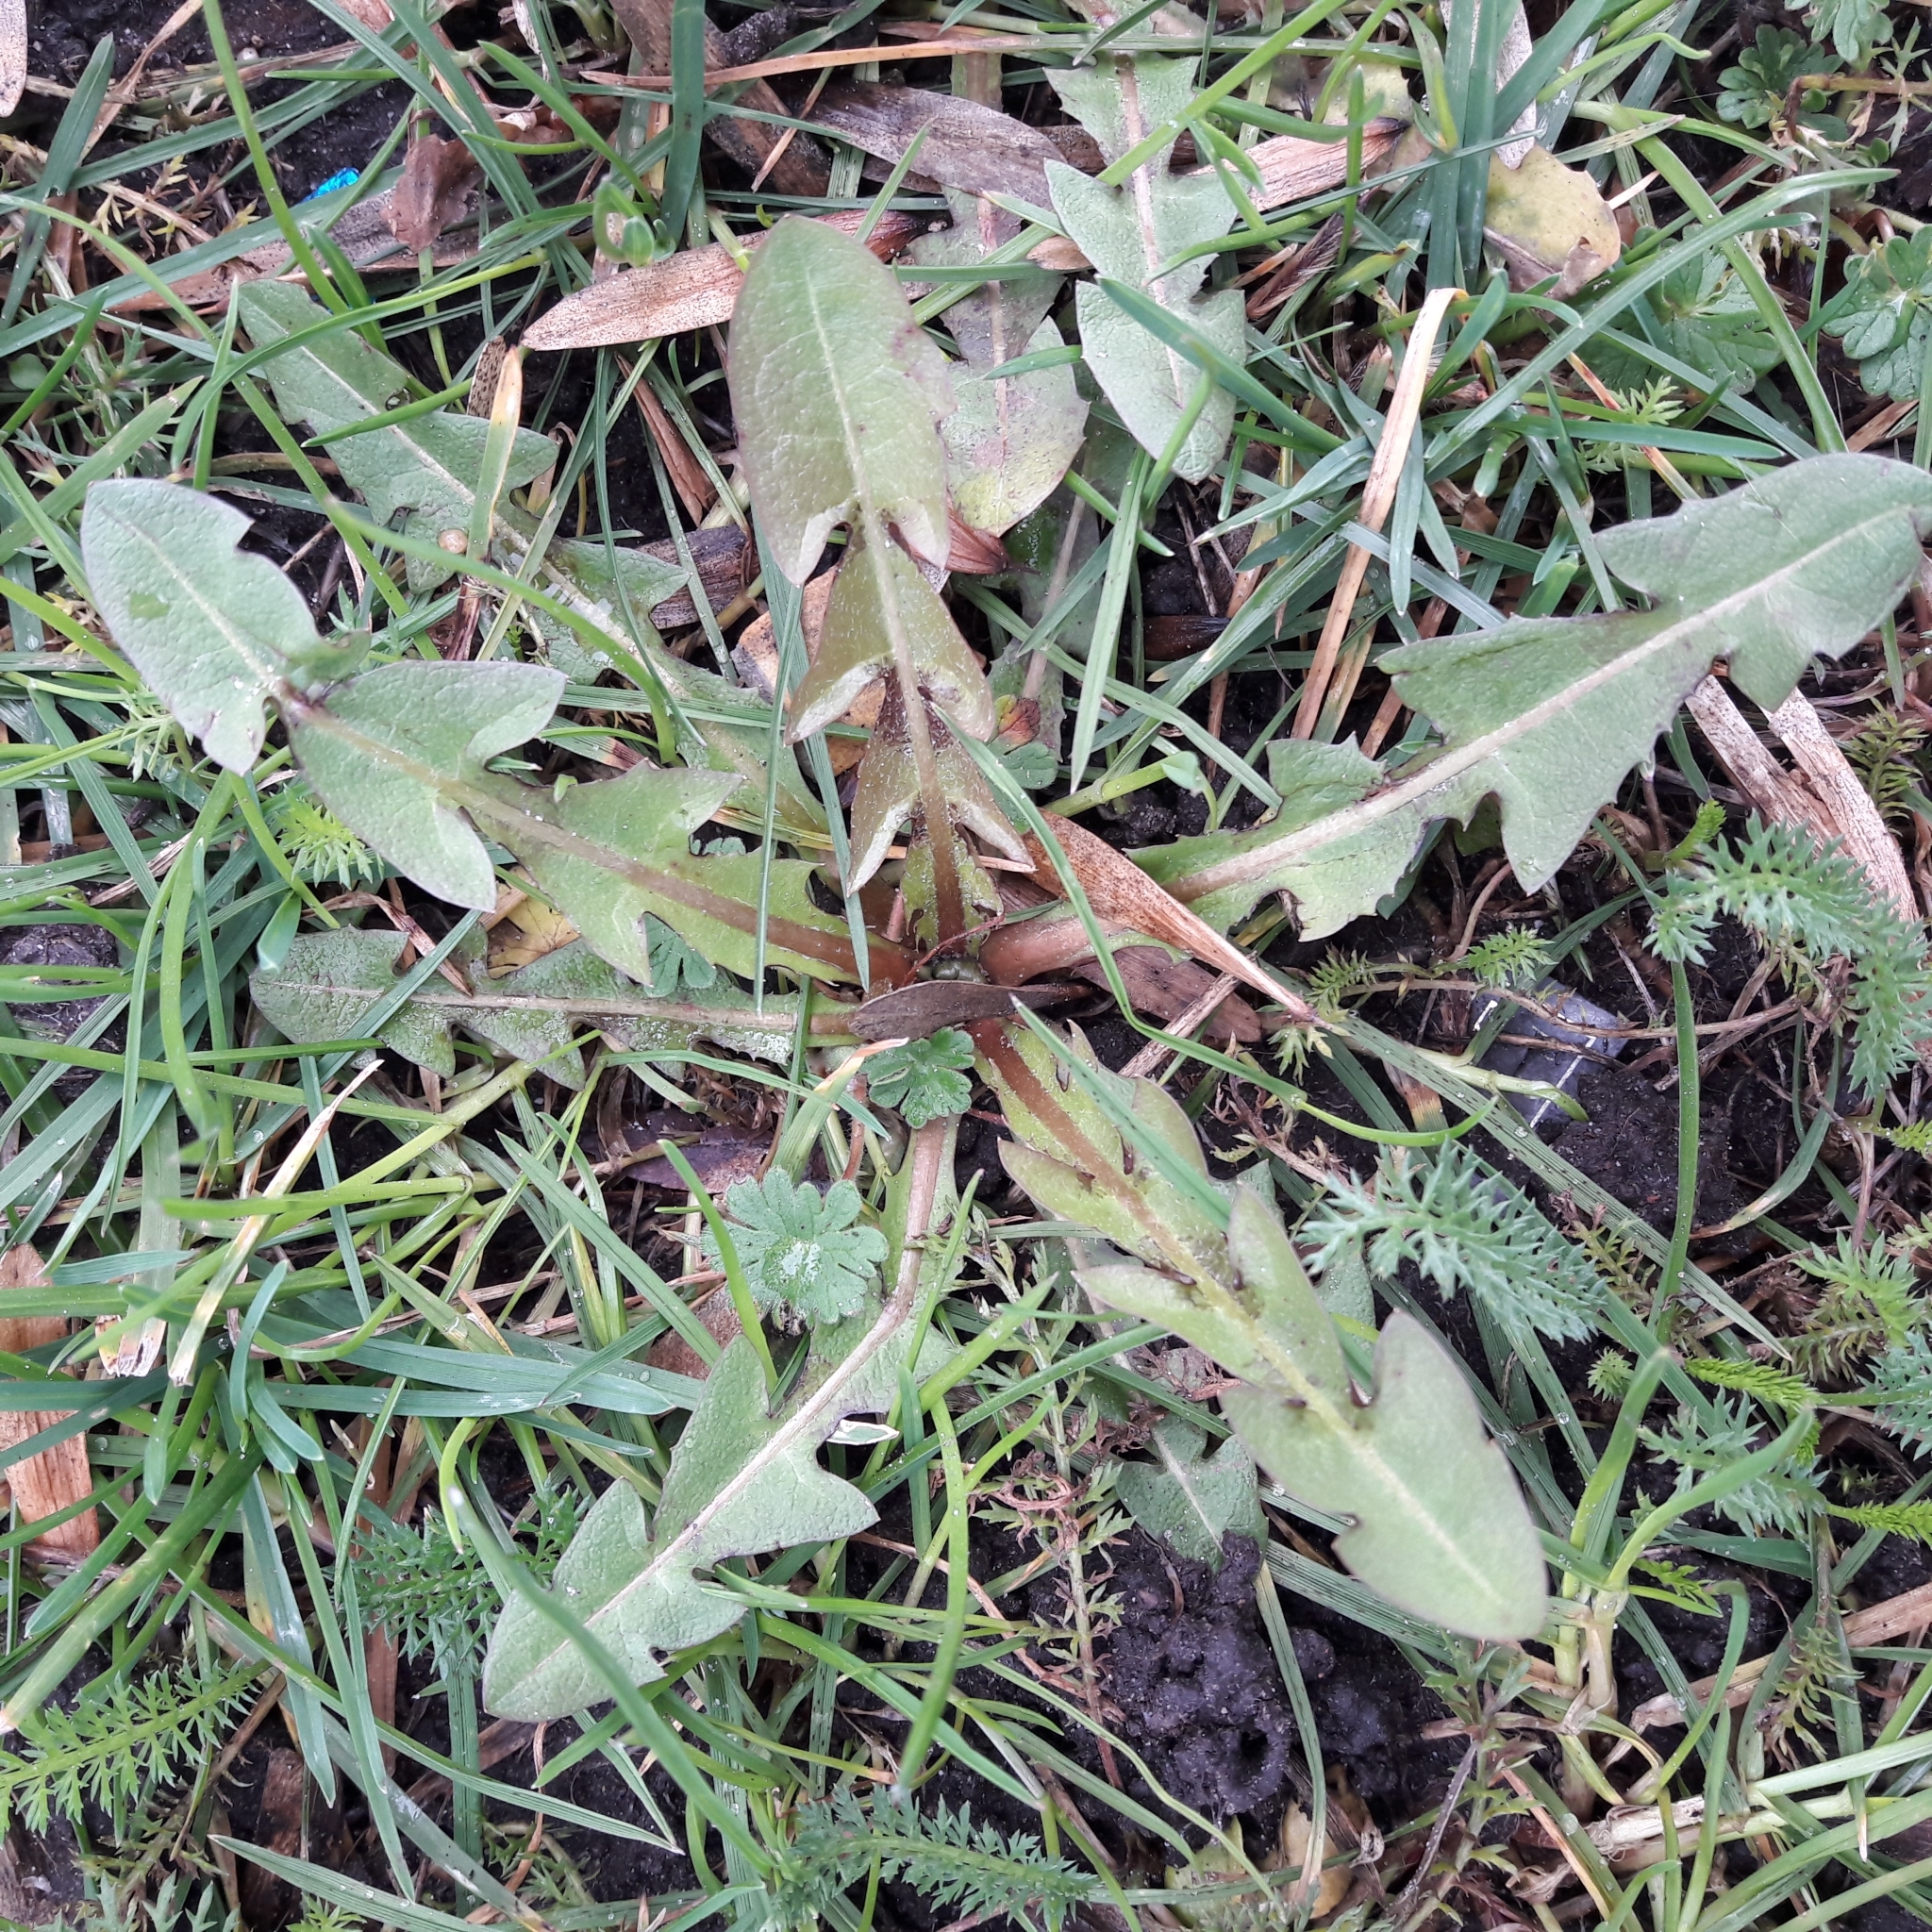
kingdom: Plantae
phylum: Tracheophyta
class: Magnoliopsida
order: Asterales
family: Asteraceae
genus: Taraxacum
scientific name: Taraxacum officinale
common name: Common dandelion
